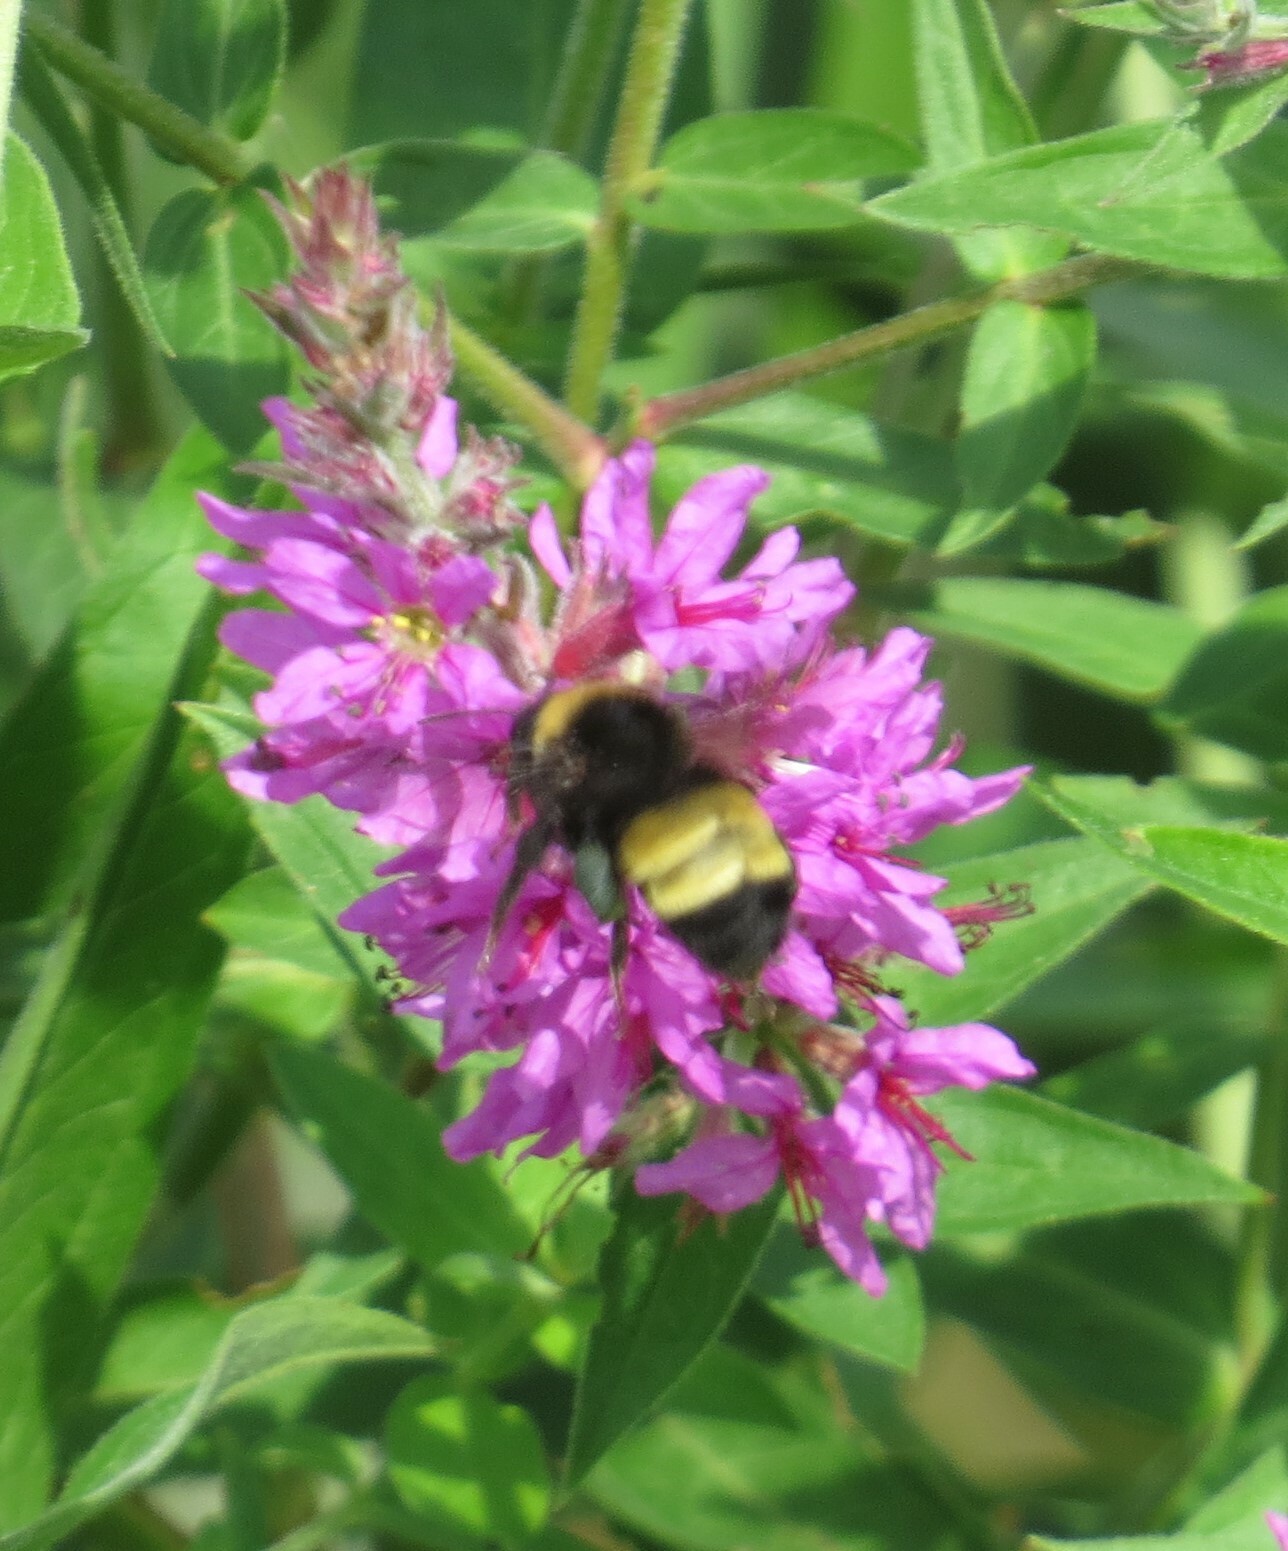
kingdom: Animalia
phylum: Arthropoda
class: Insecta
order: Hymenoptera
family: Apidae
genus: Bombus
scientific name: Bombus auricomus
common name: Black and gold bumble bee
